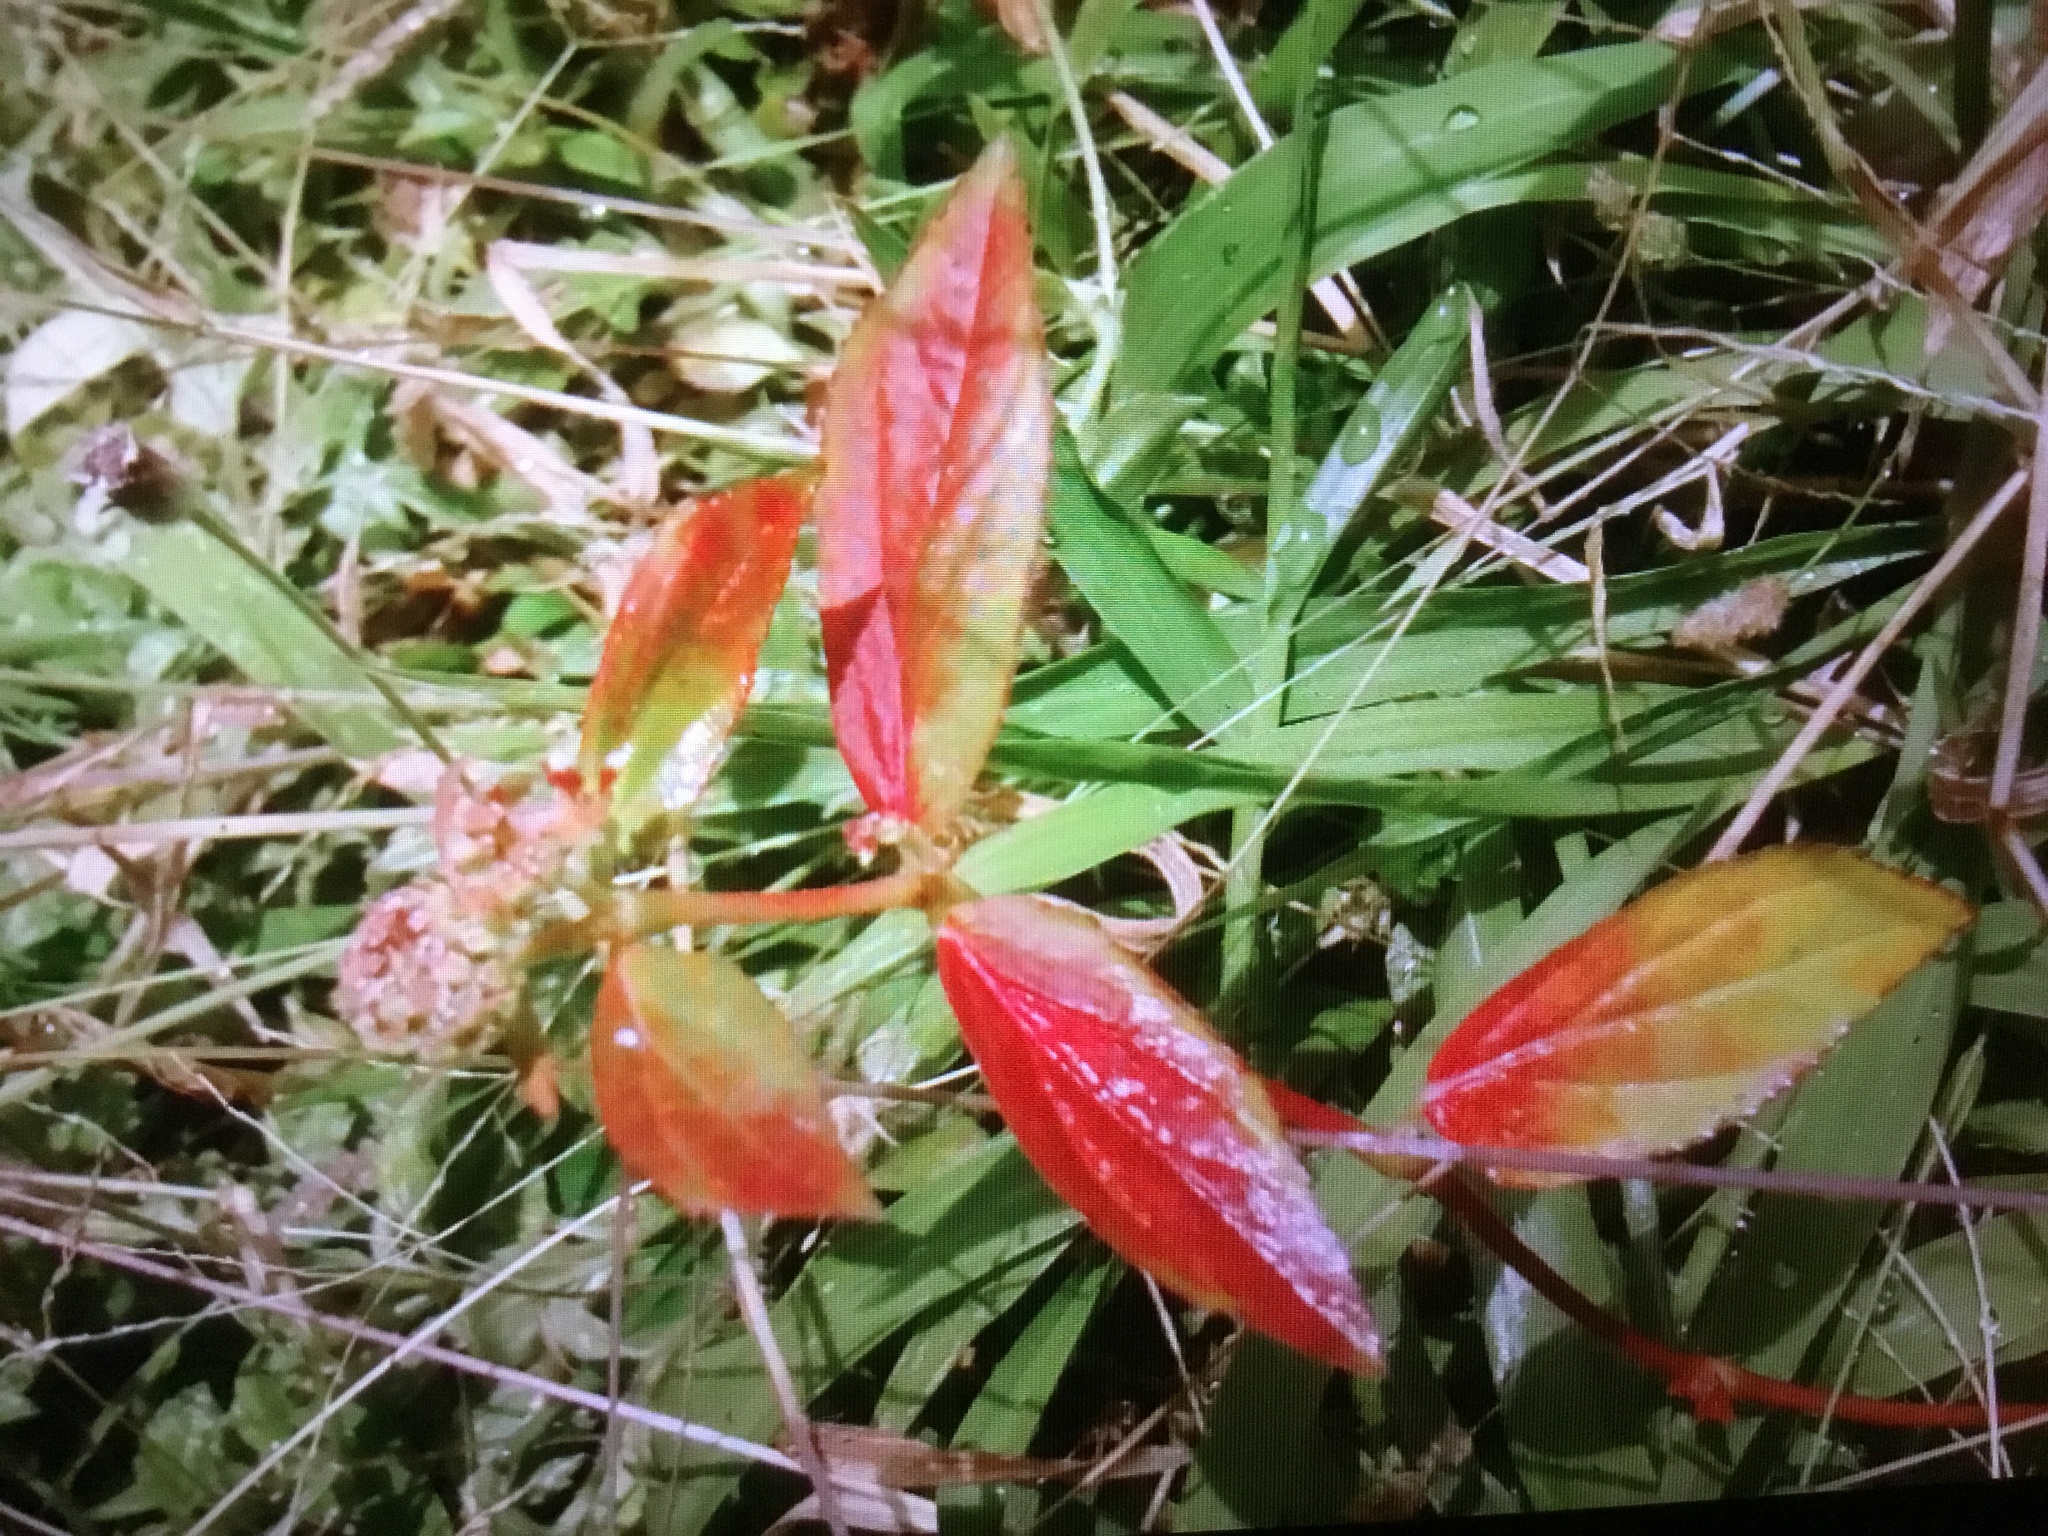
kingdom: Plantae
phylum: Tracheophyta
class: Magnoliopsida
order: Malpighiales
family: Euphorbiaceae
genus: Euphorbia
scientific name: Euphorbia hirta
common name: Pillpod sandmat
